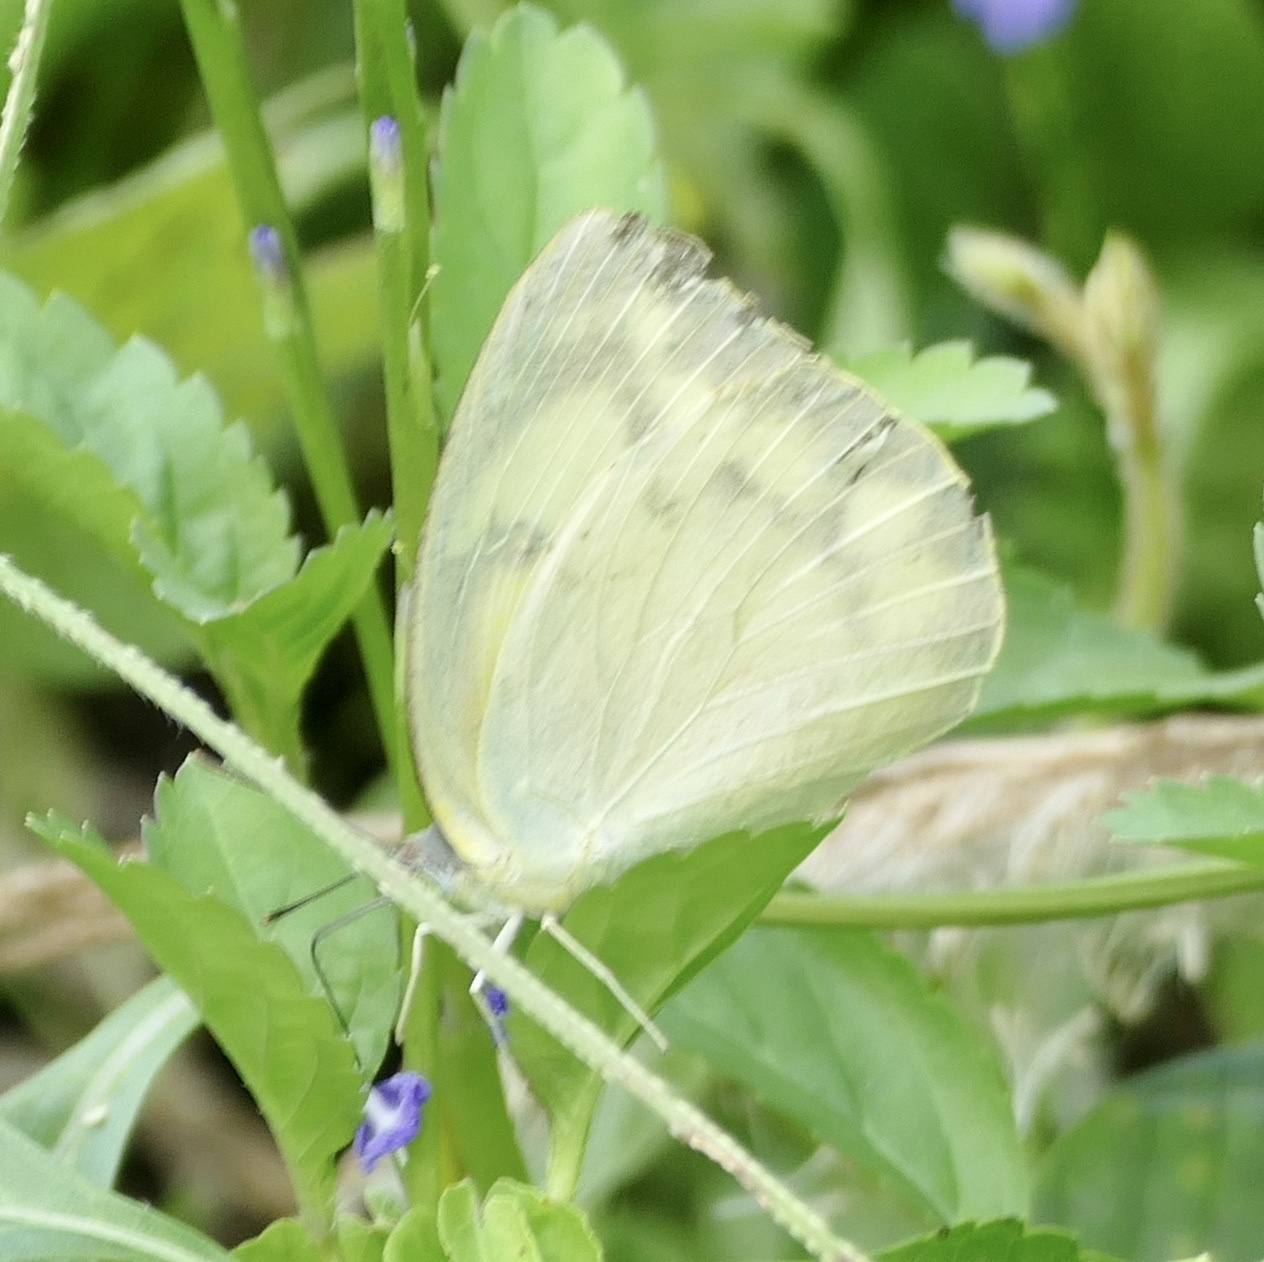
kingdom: Animalia
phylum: Arthropoda
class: Insecta
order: Lepidoptera
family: Pieridae
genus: Catopsilia
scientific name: Catopsilia pomona
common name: Common emigrant
